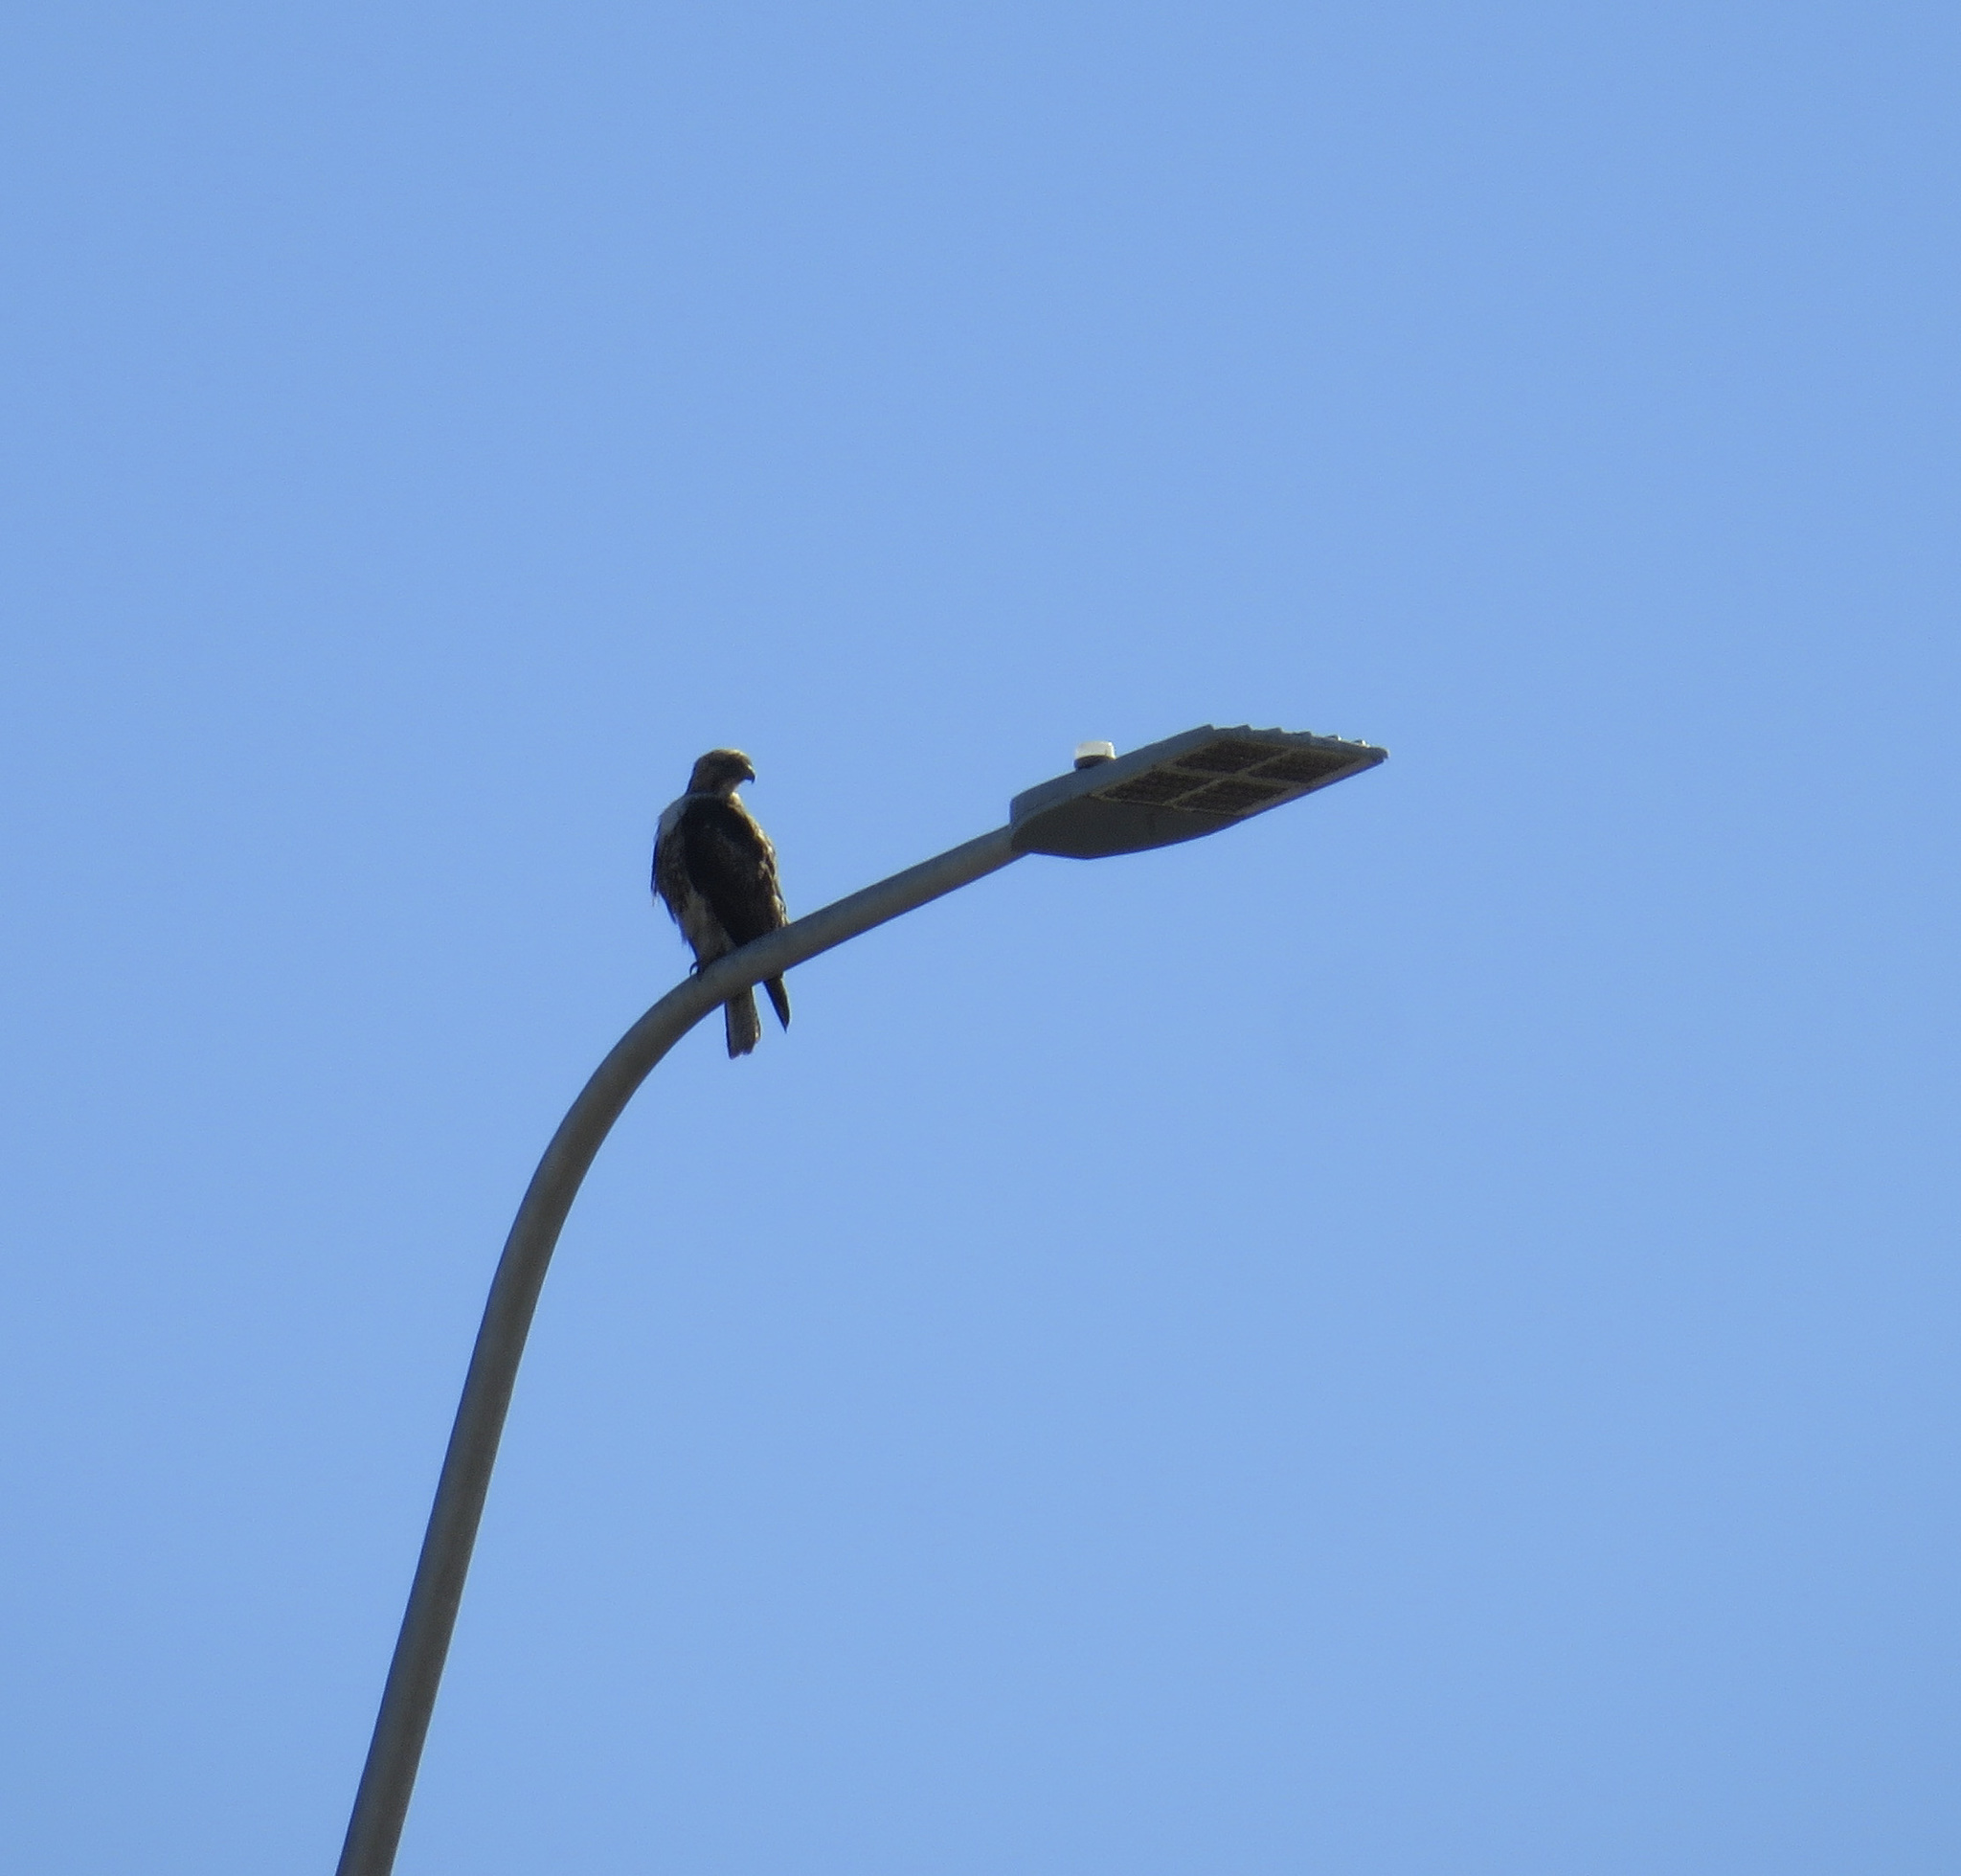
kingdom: Animalia
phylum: Chordata
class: Aves
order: Accipitriformes
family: Accipitridae
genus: Buteo
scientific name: Buteo jamaicensis
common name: Red-tailed hawk
